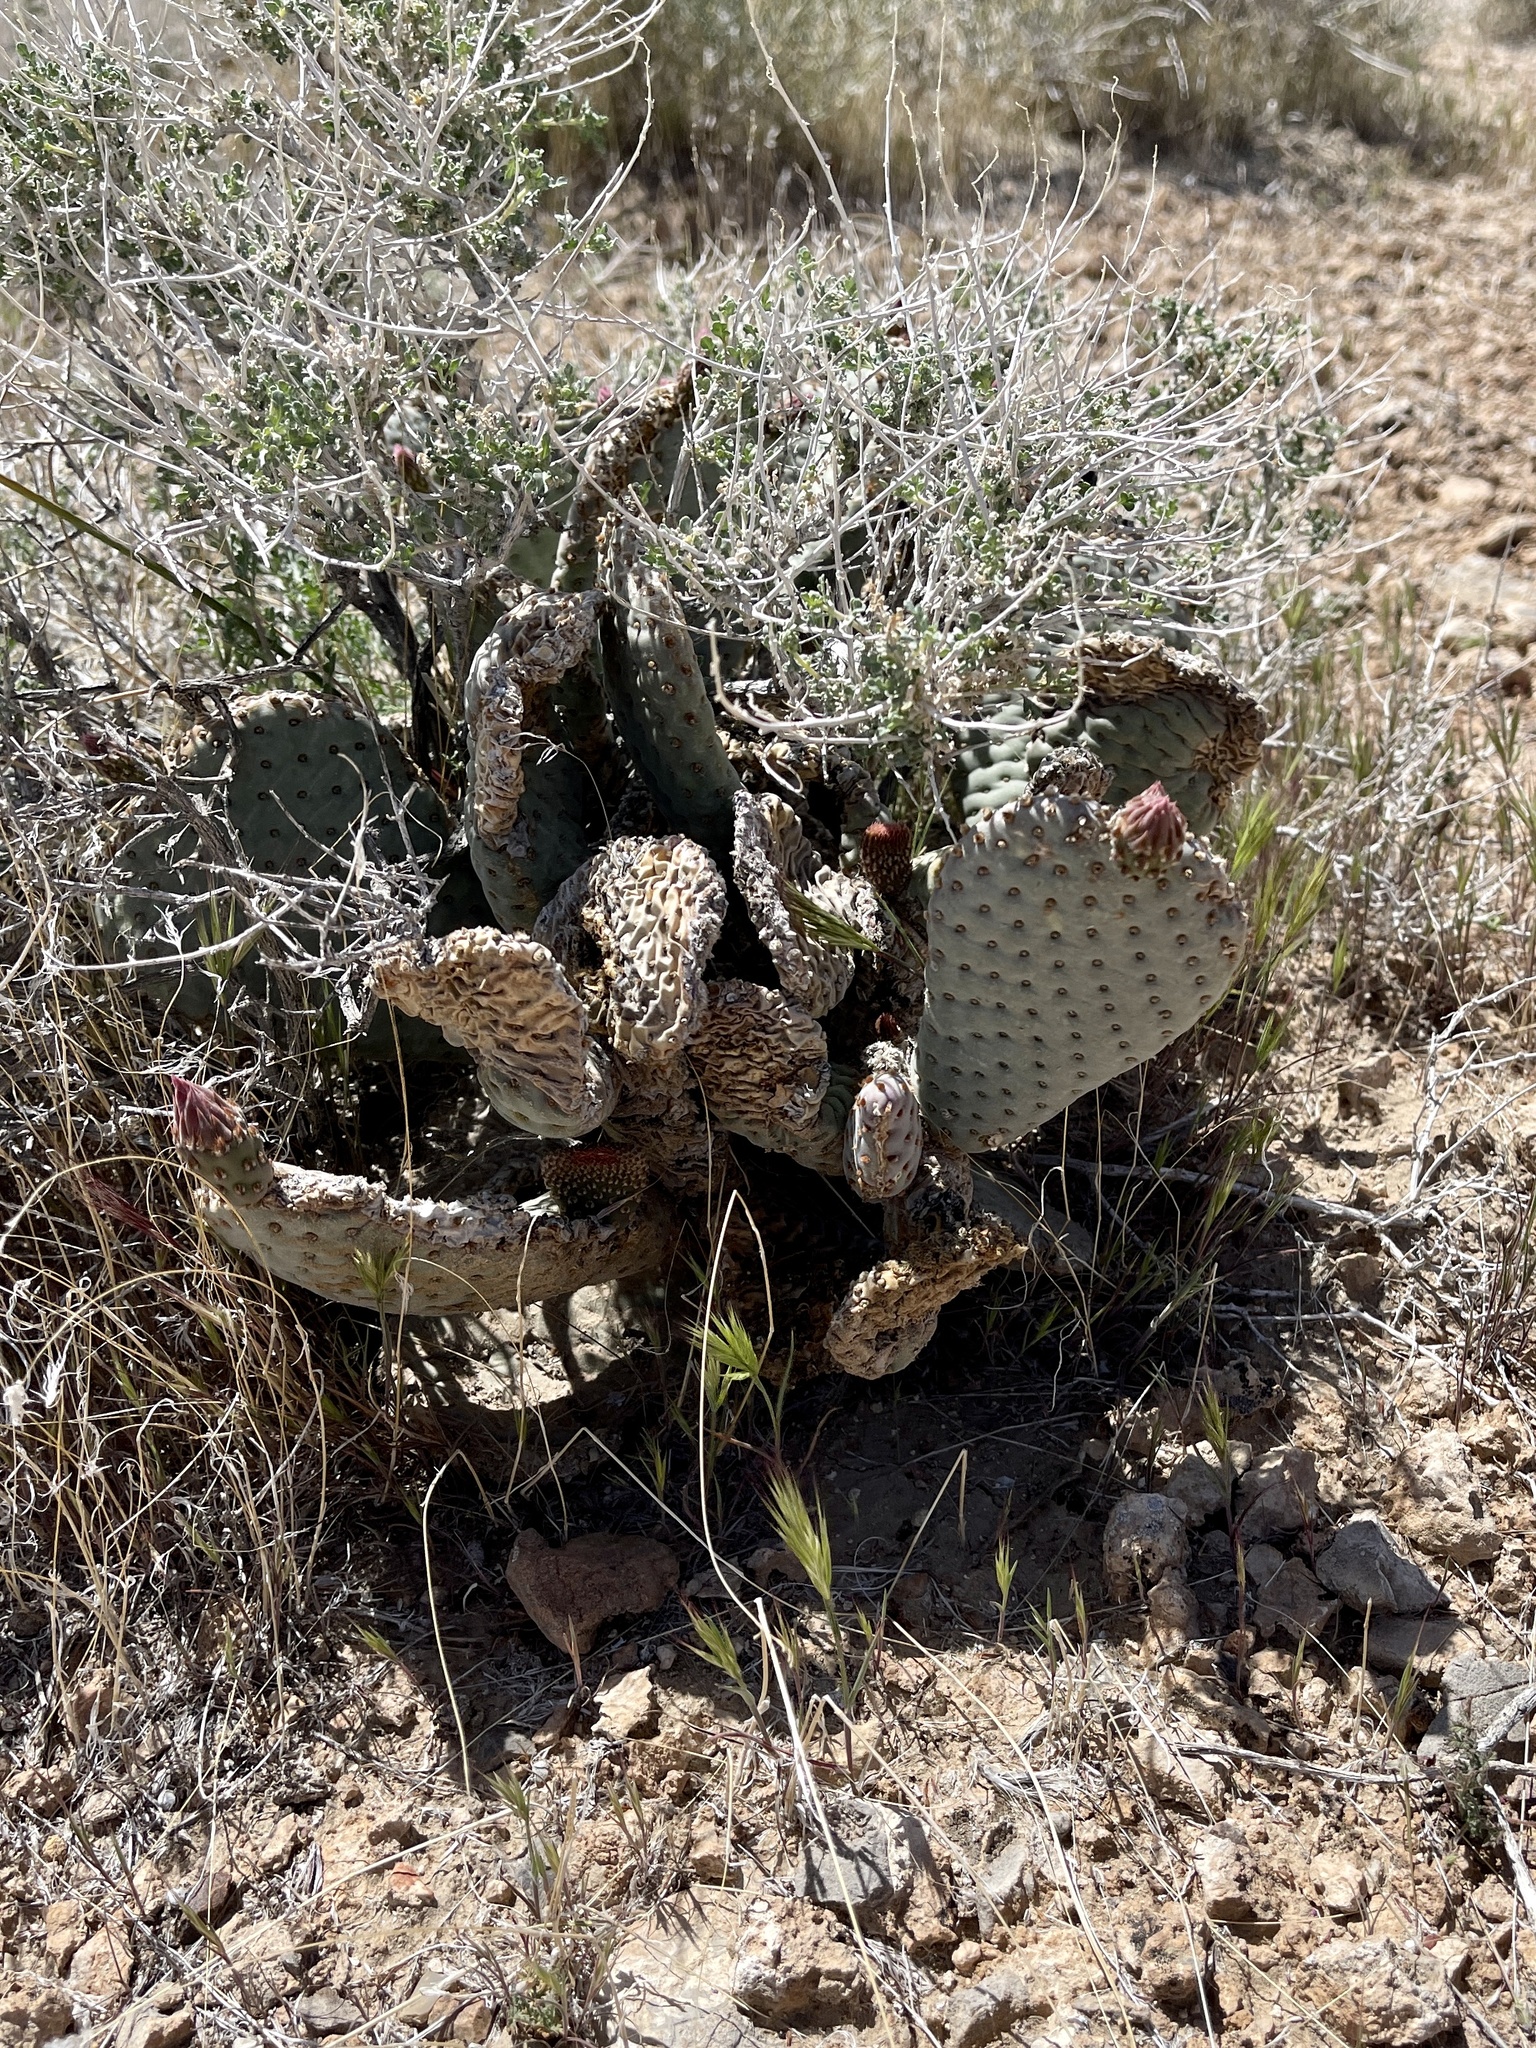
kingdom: Plantae
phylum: Tracheophyta
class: Magnoliopsida
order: Caryophyllales
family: Cactaceae
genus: Opuntia
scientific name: Opuntia basilaris
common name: Beavertail prickly-pear
